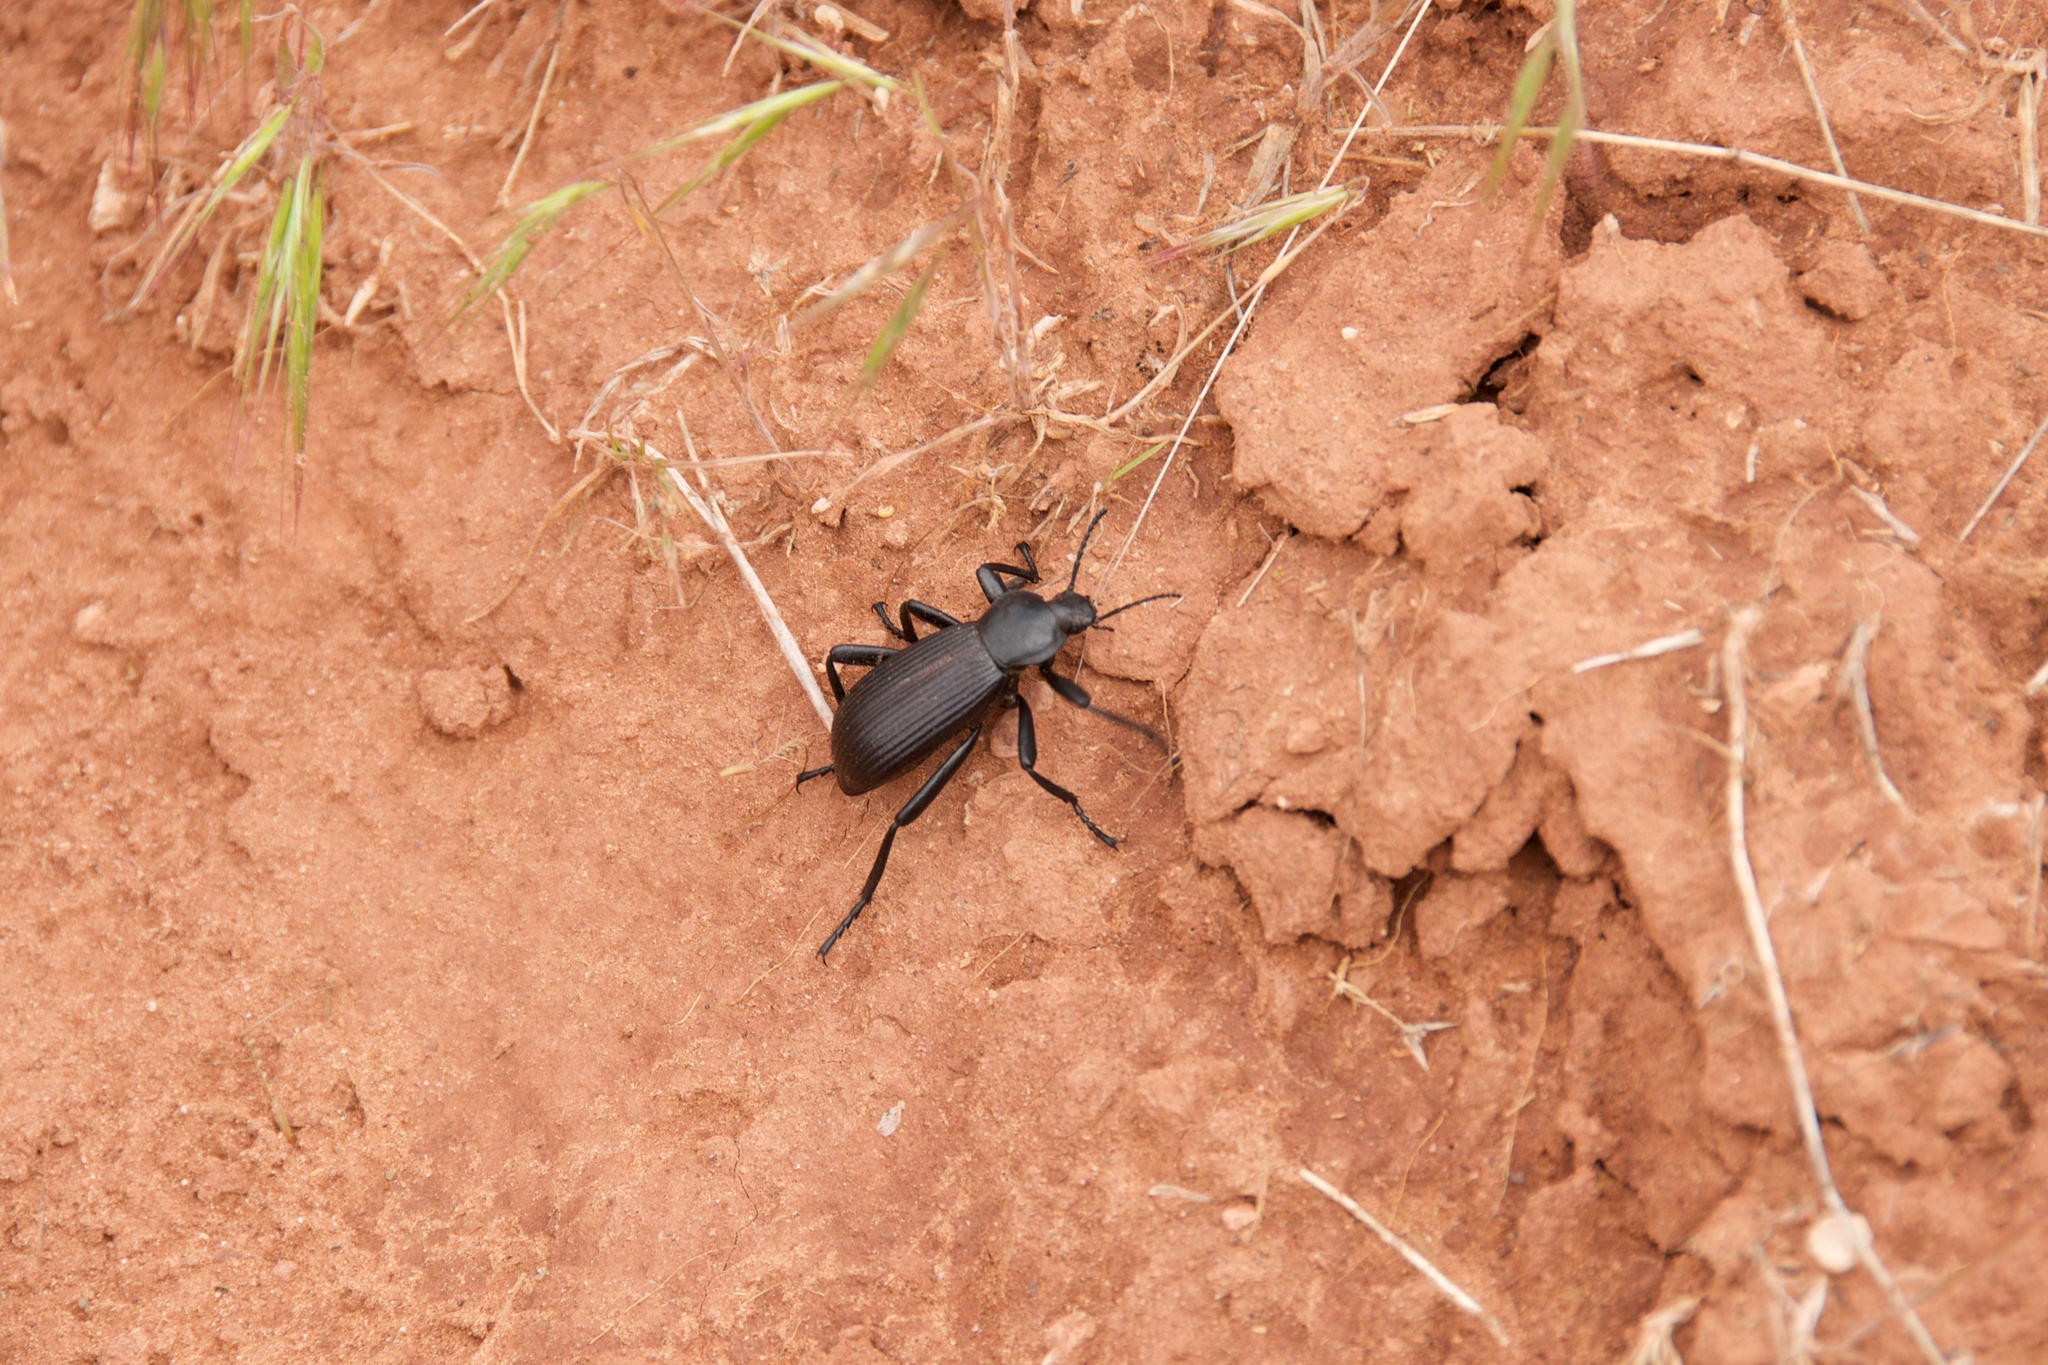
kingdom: Animalia
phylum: Arthropoda
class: Insecta
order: Coleoptera
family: Tenebrionidae
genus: Eleodes
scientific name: Eleodes obscura
